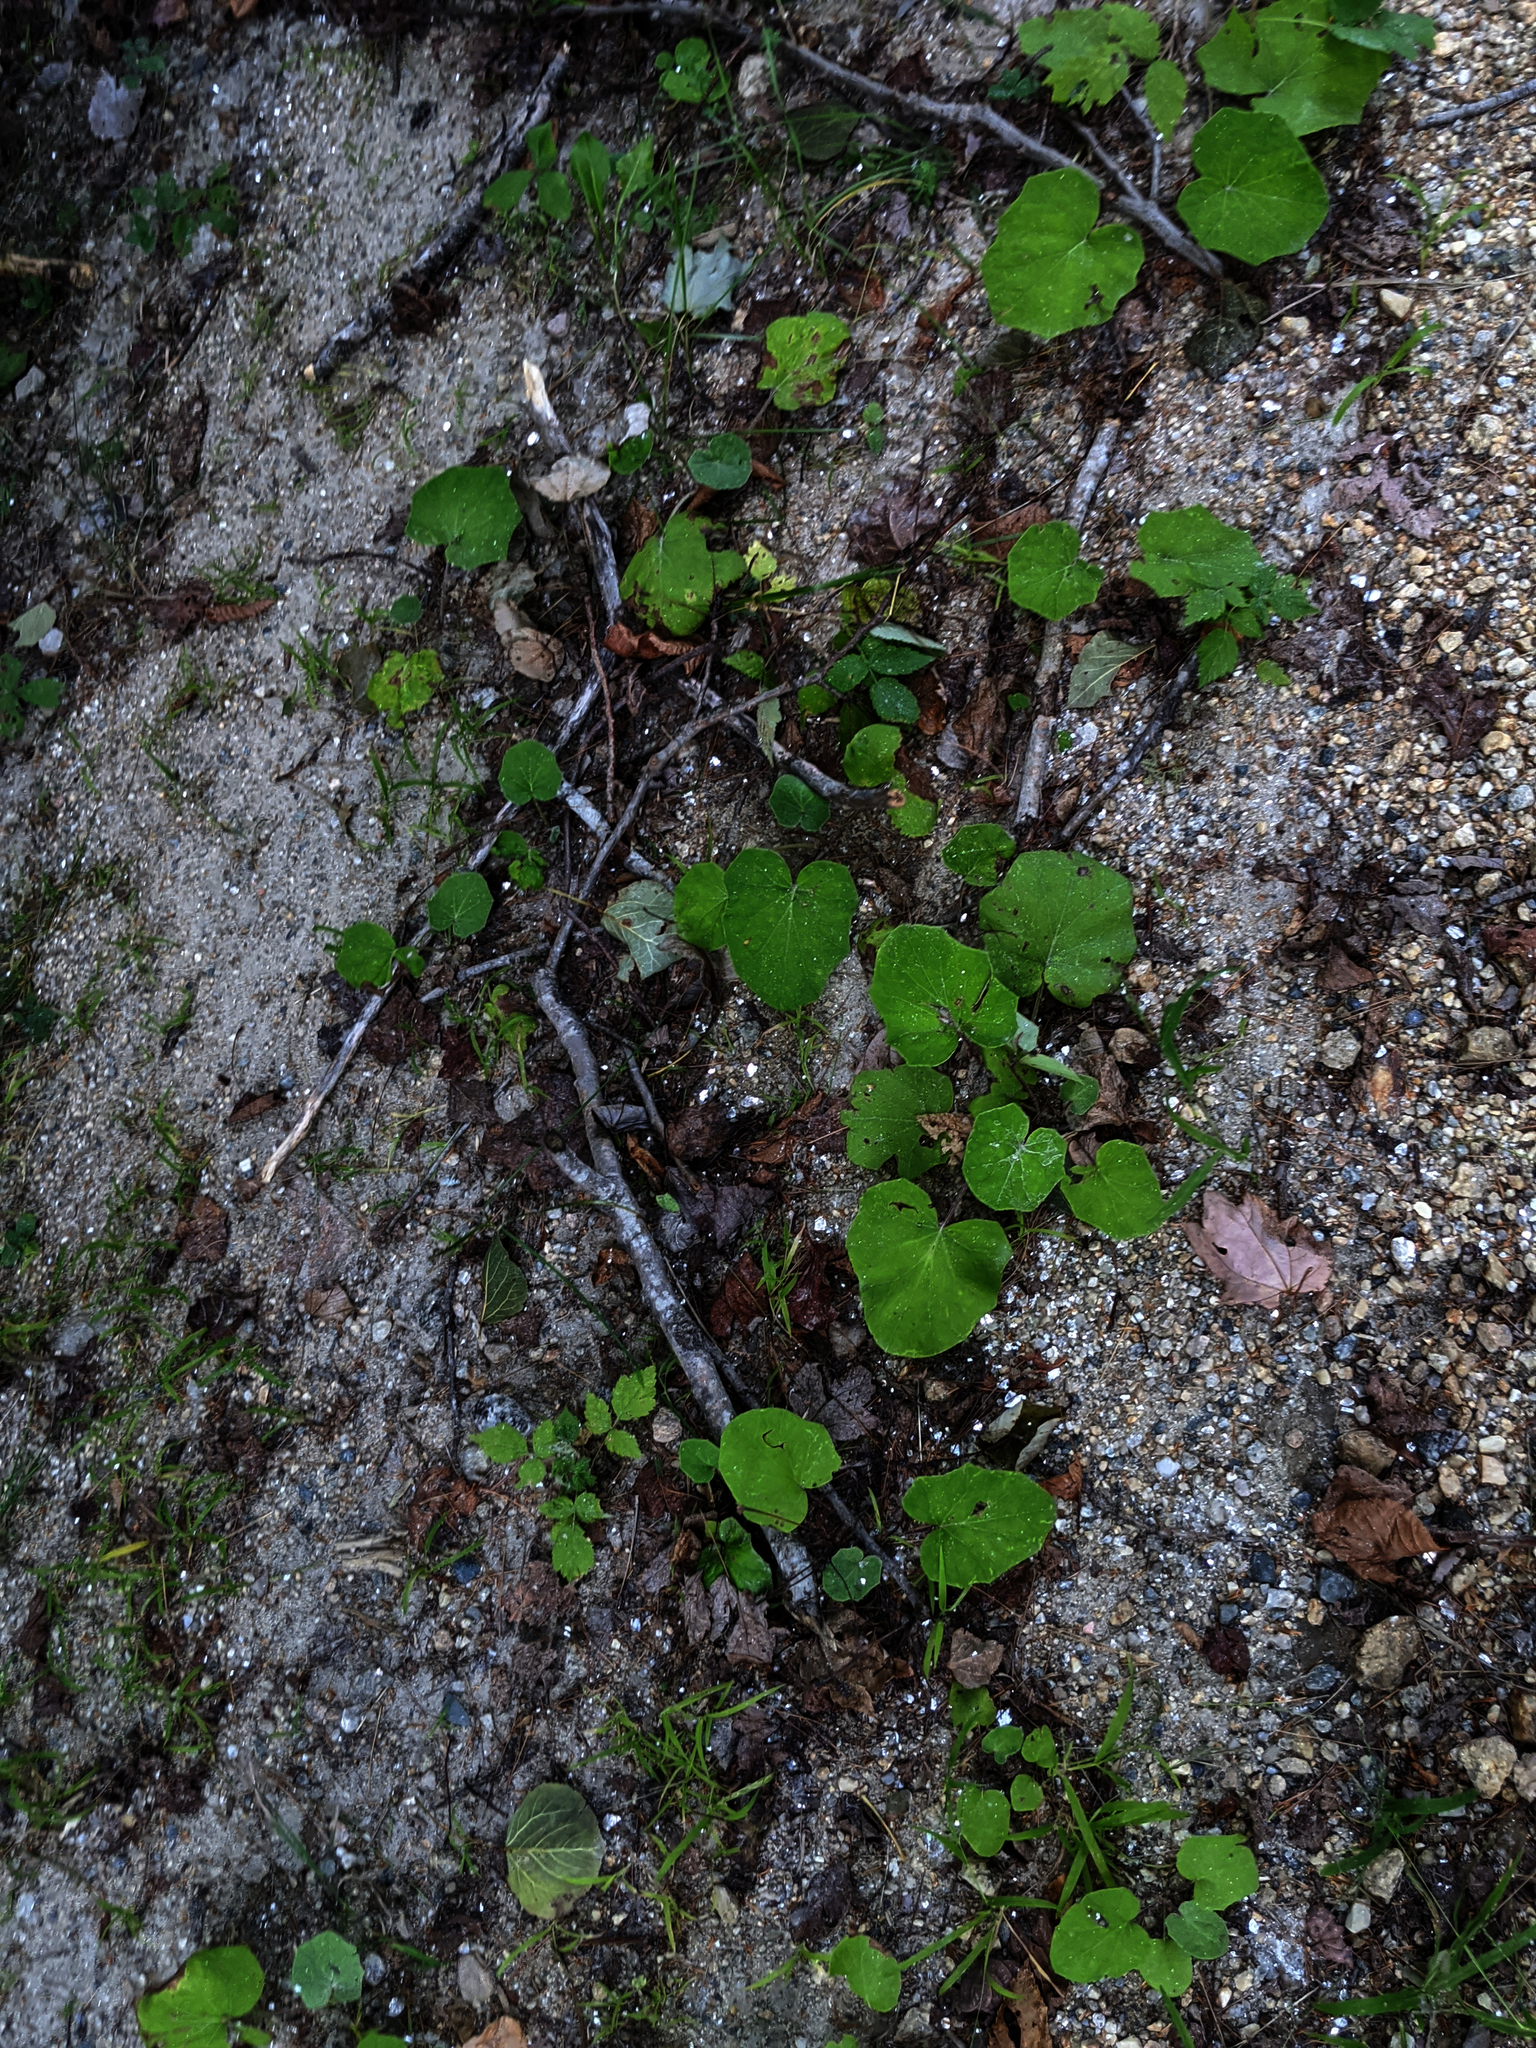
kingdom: Plantae
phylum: Tracheophyta
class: Magnoliopsida
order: Asterales
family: Asteraceae
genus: Tussilago
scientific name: Tussilago farfara
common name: Coltsfoot
